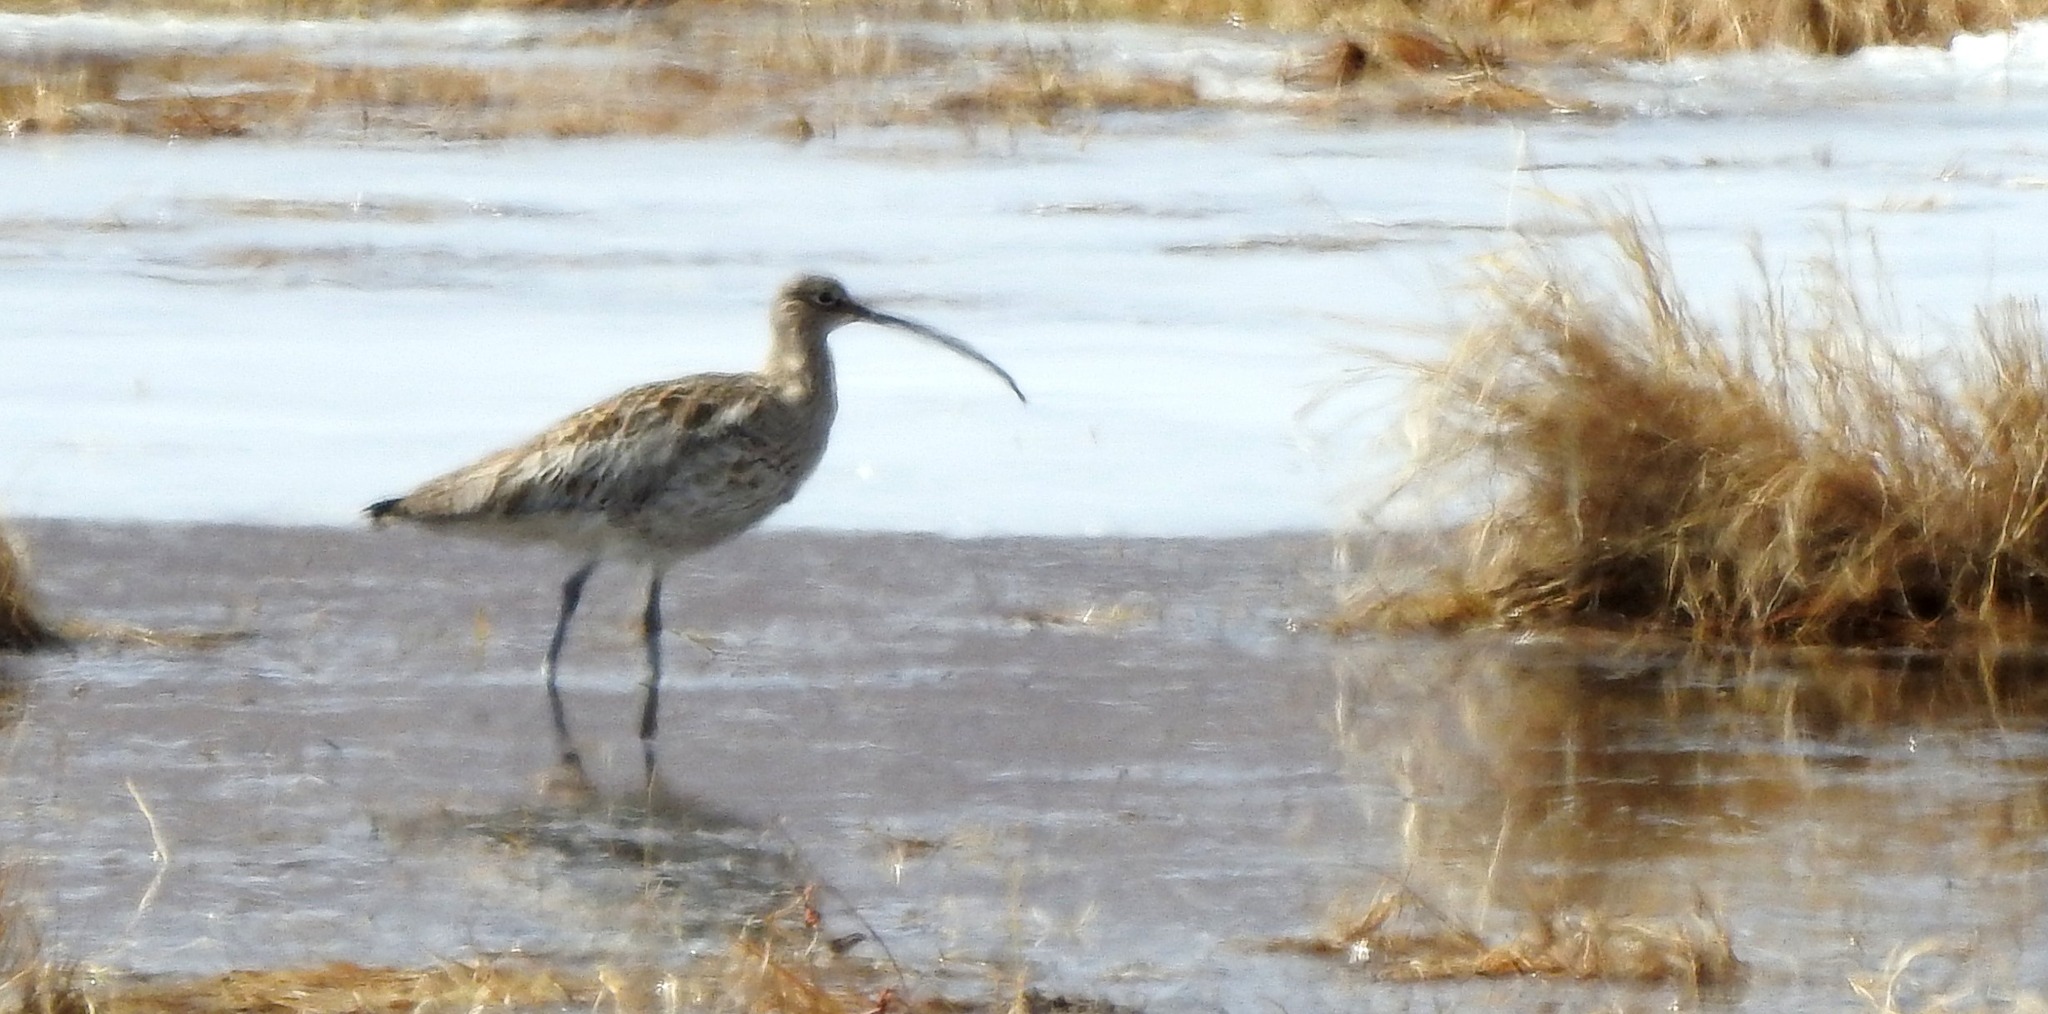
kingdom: Animalia
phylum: Chordata
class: Aves
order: Charadriiformes
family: Scolopacidae
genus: Numenius
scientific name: Numenius madagascariensis
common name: Far eastern curlew
